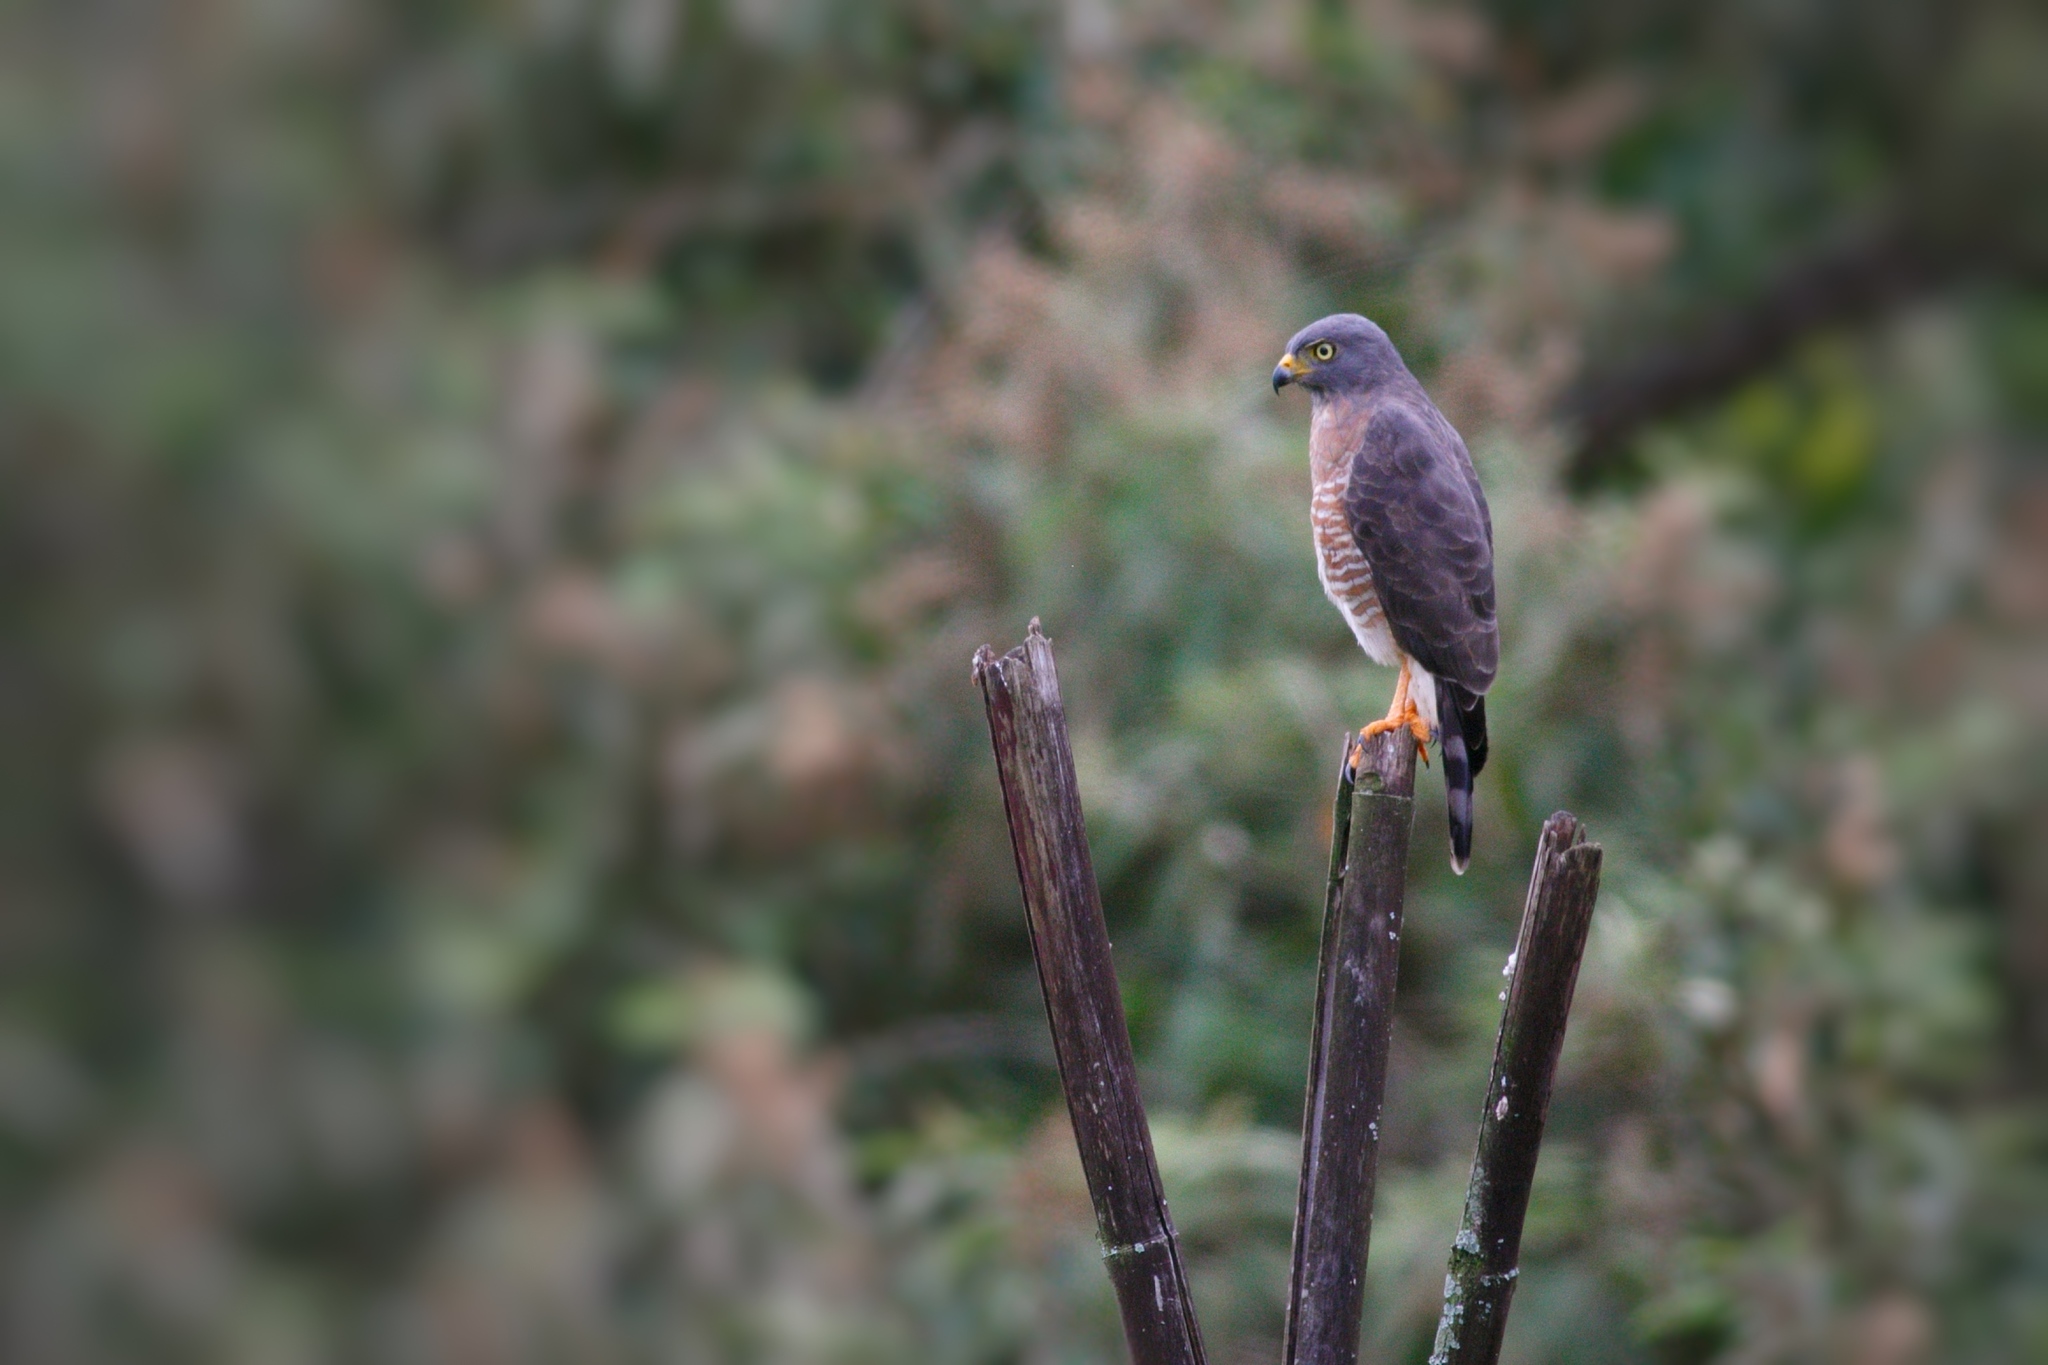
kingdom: Animalia
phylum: Chordata
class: Aves
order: Accipitriformes
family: Accipitridae
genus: Rupornis
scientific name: Rupornis magnirostris
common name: Roadside hawk
